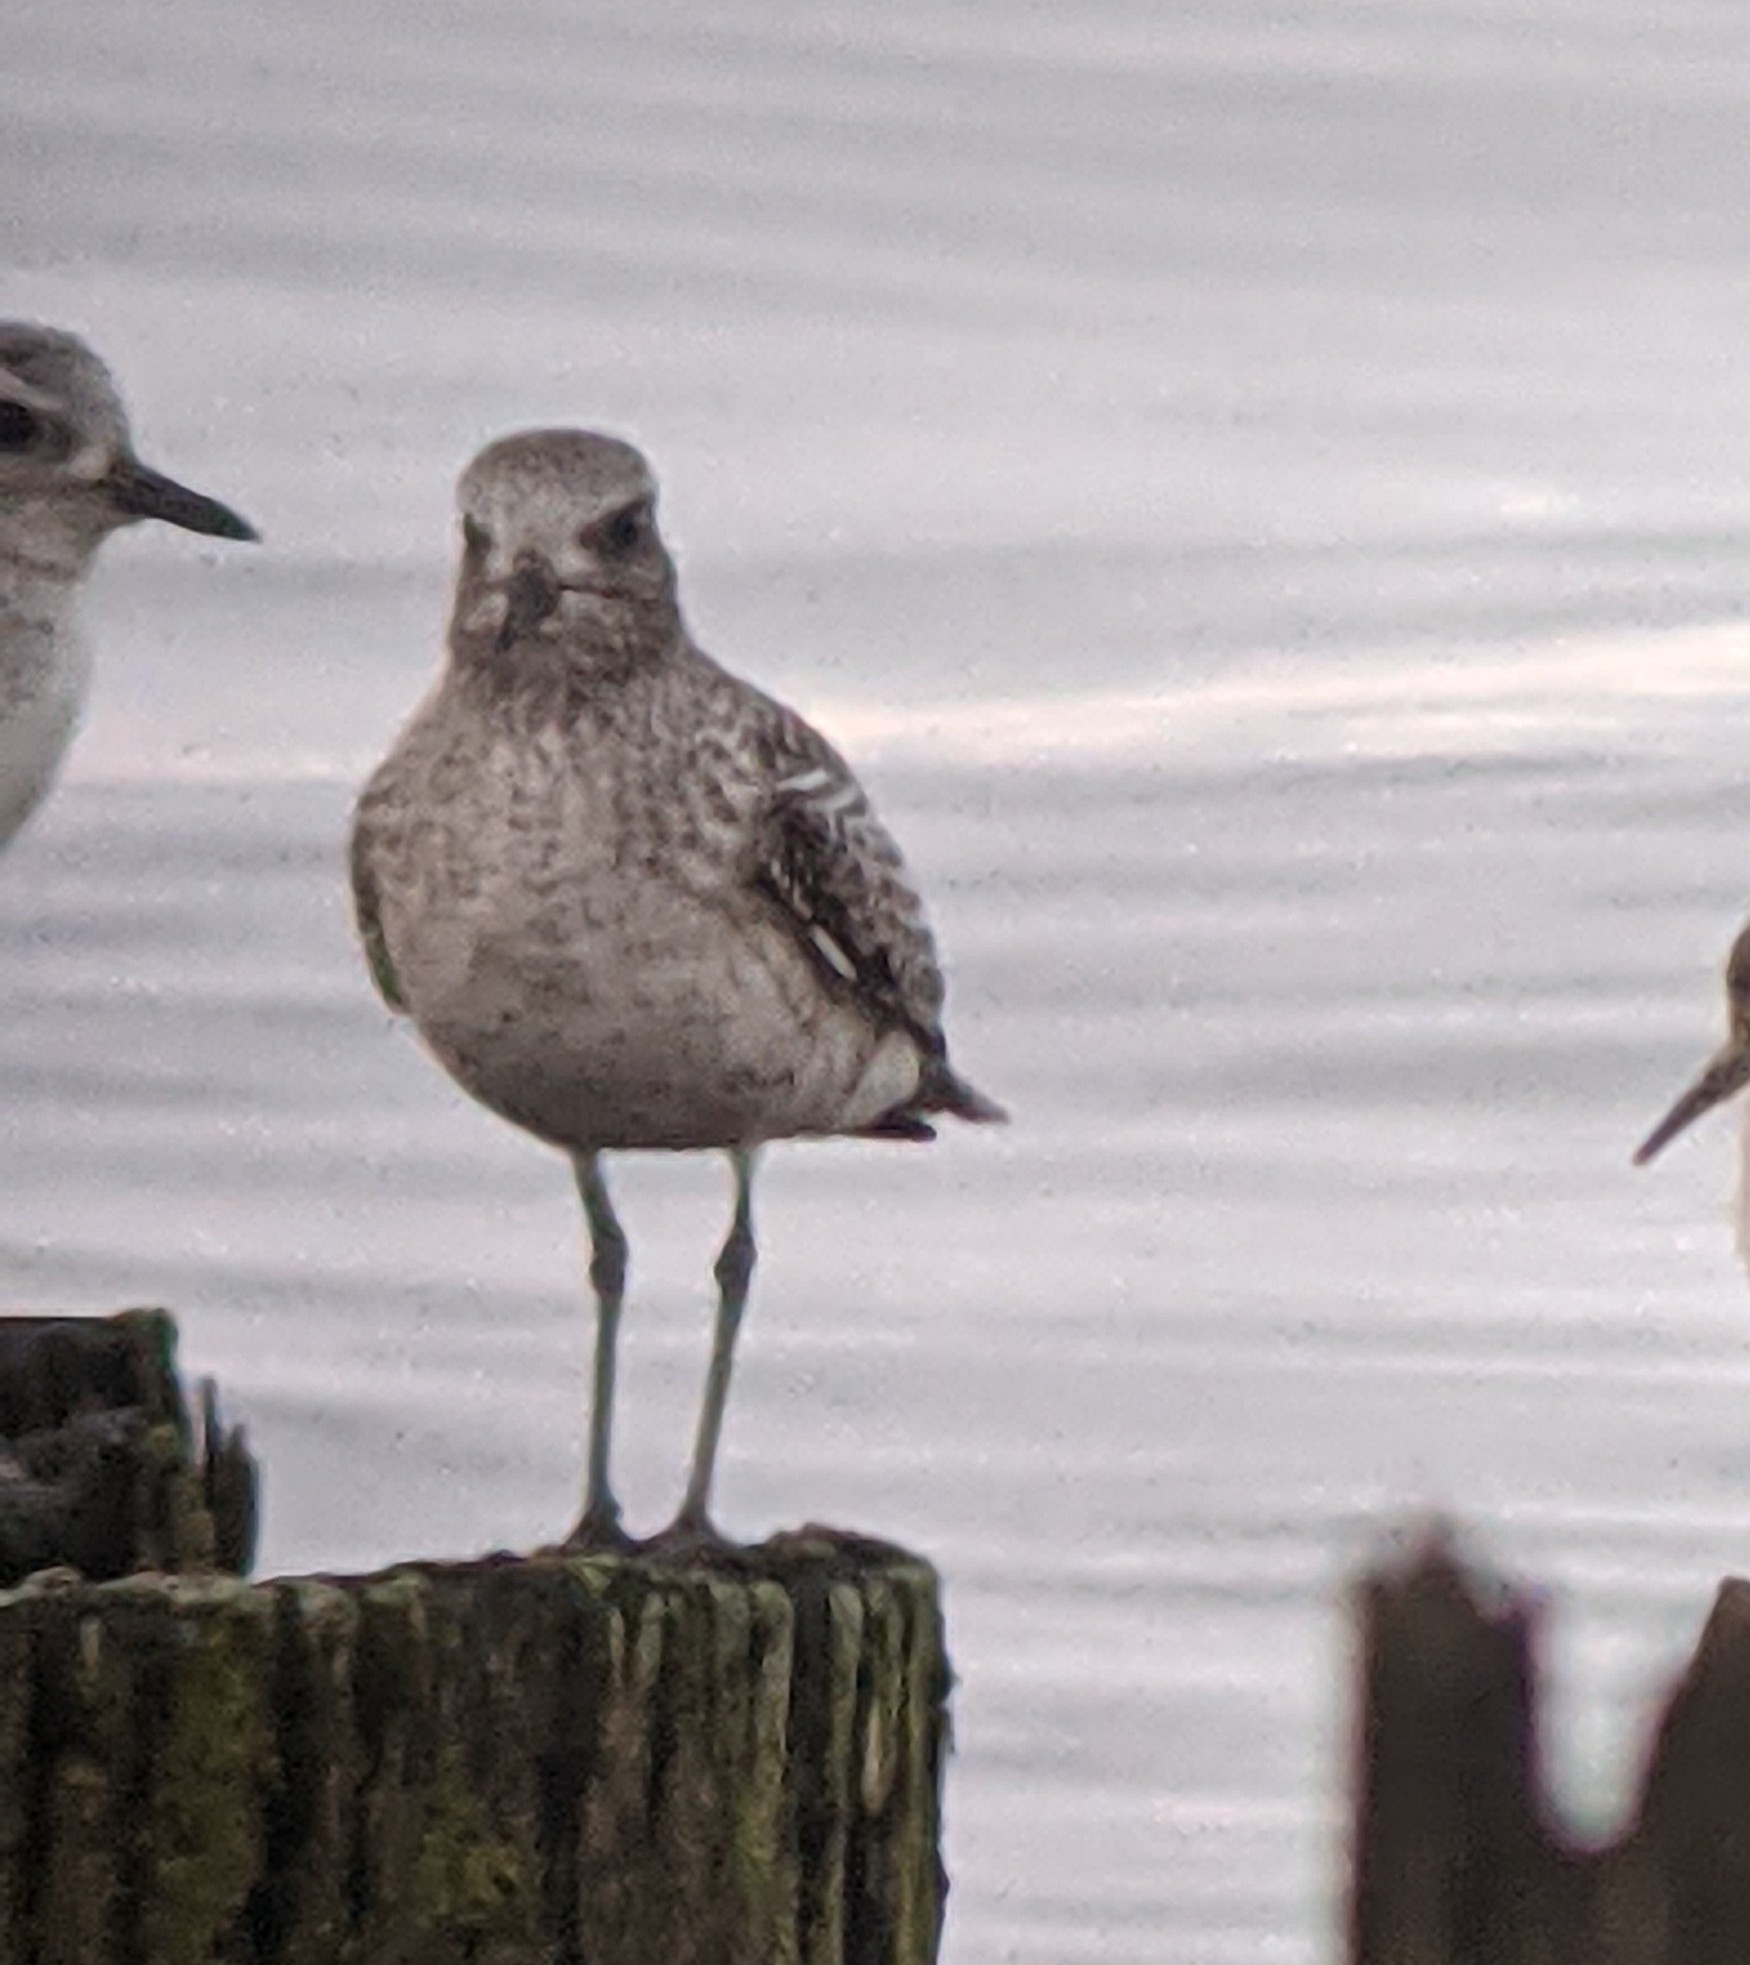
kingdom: Animalia
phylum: Chordata
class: Aves
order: Charadriiformes
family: Charadriidae
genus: Pluvialis
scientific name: Pluvialis squatarola
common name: Grey plover
